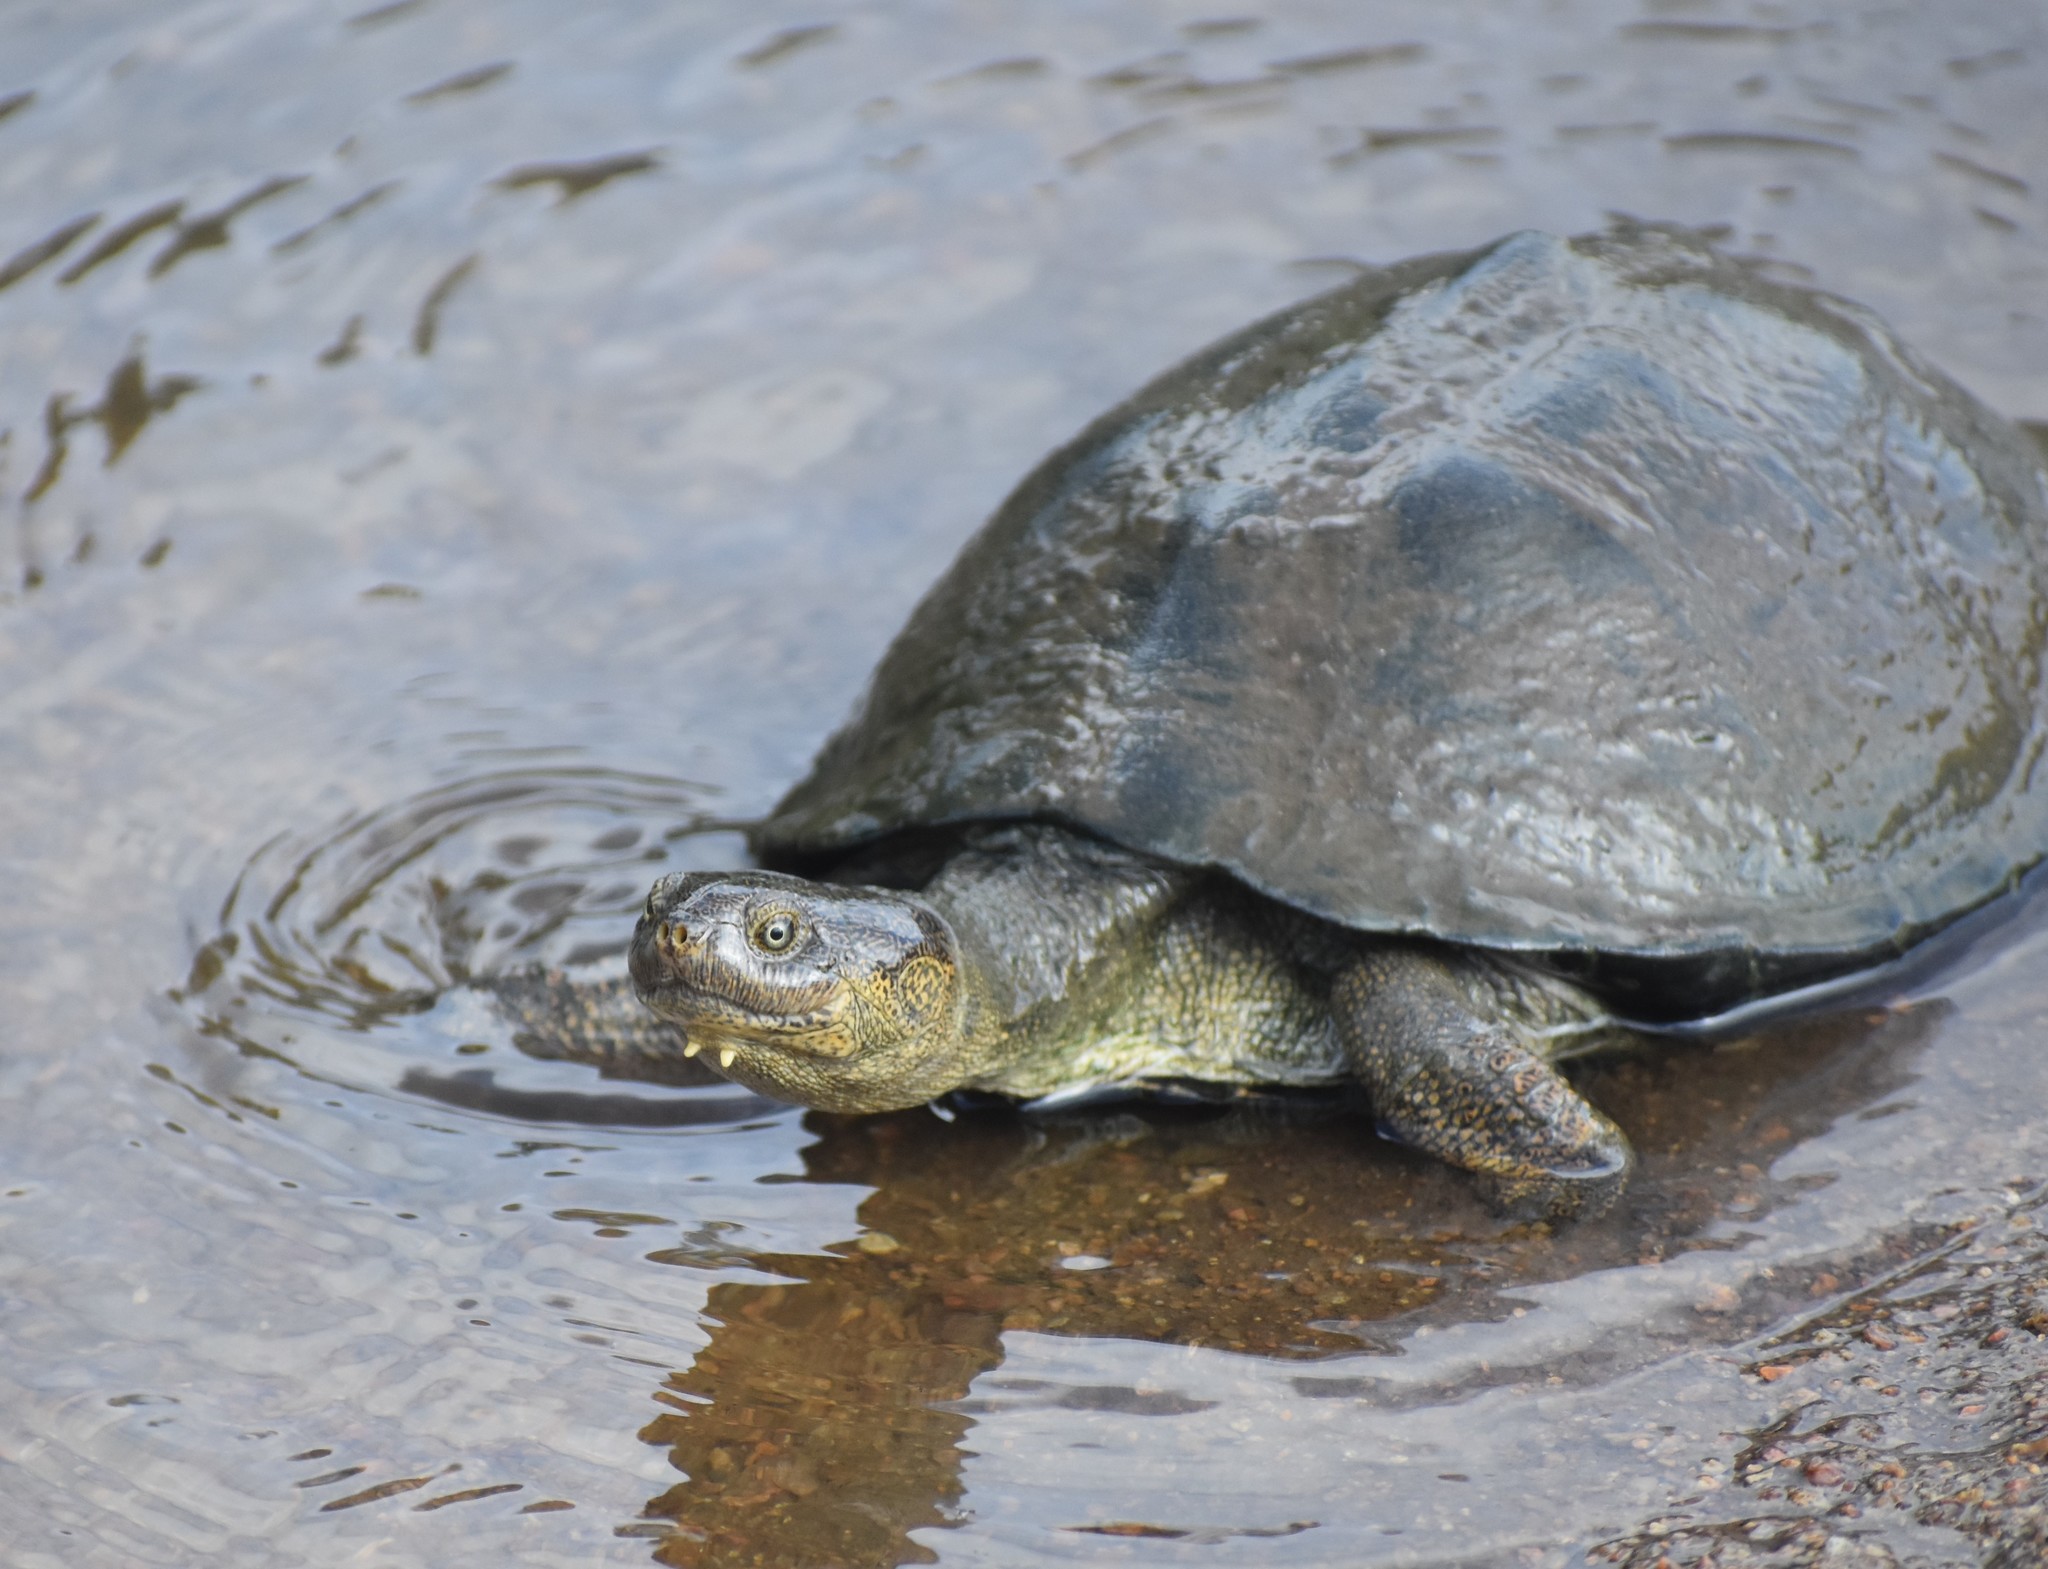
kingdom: Animalia
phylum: Chordata
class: Testudines
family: Pelomedusidae
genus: Pelusios
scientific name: Pelusios sinuatus
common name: Serrated hinged terrapin
